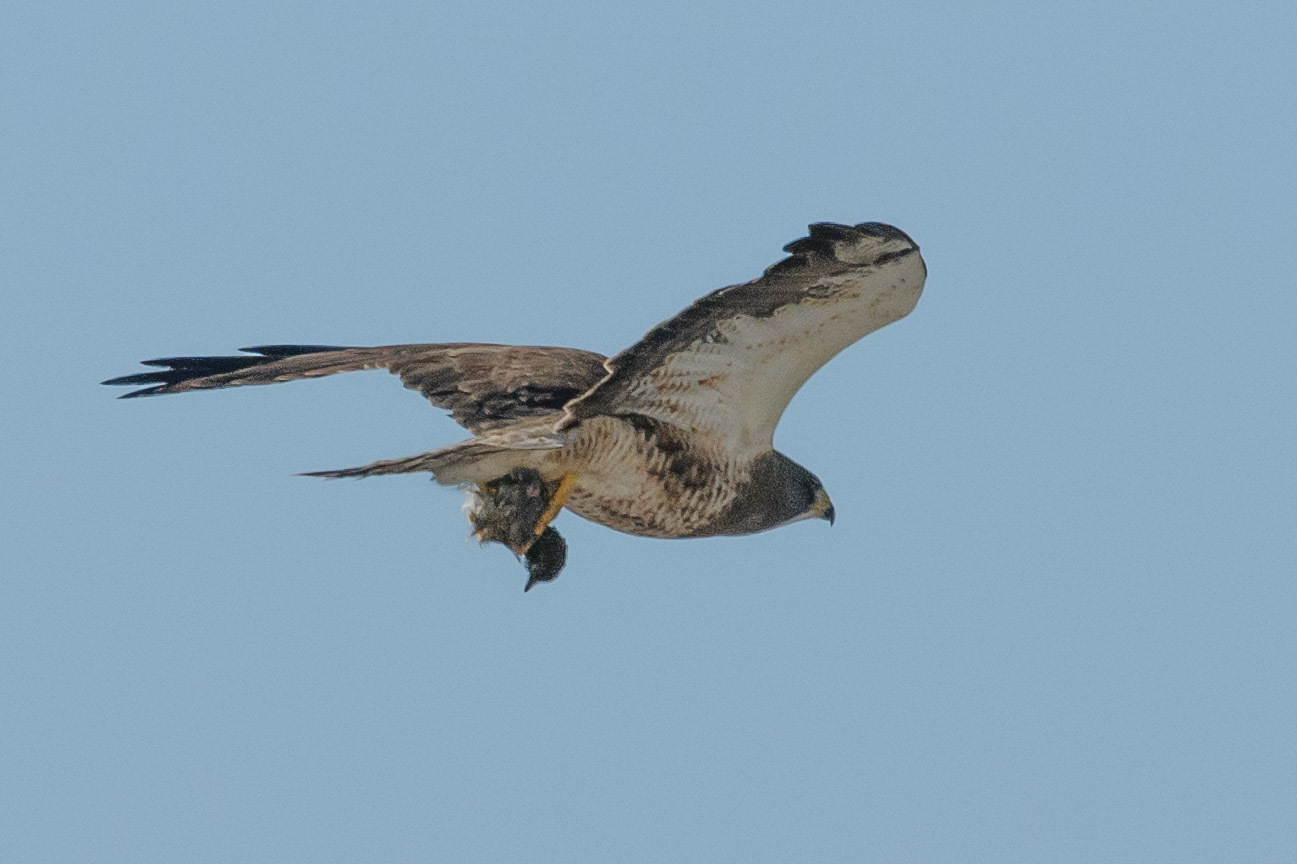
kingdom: Animalia
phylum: Chordata
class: Aves
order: Accipitriformes
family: Accipitridae
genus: Buteo
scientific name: Buteo swainsoni
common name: Swainson's hawk
